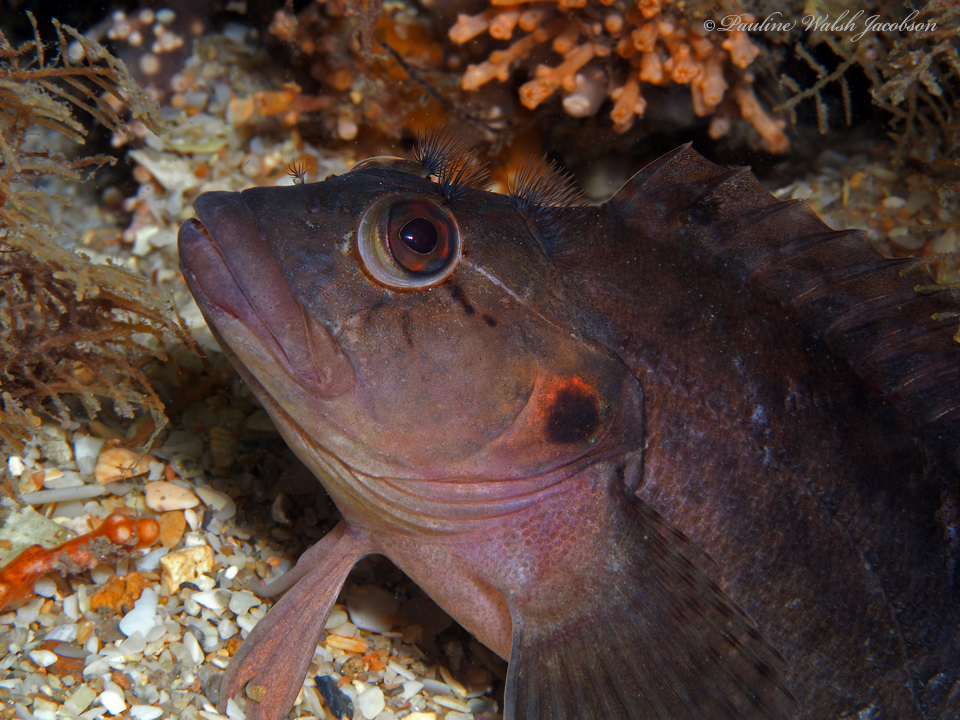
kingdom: Animalia
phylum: Chordata
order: Perciformes
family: Labrisomidae
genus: Labrisomus
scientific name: Labrisomus conditus
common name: Masquerader hairy blenny
